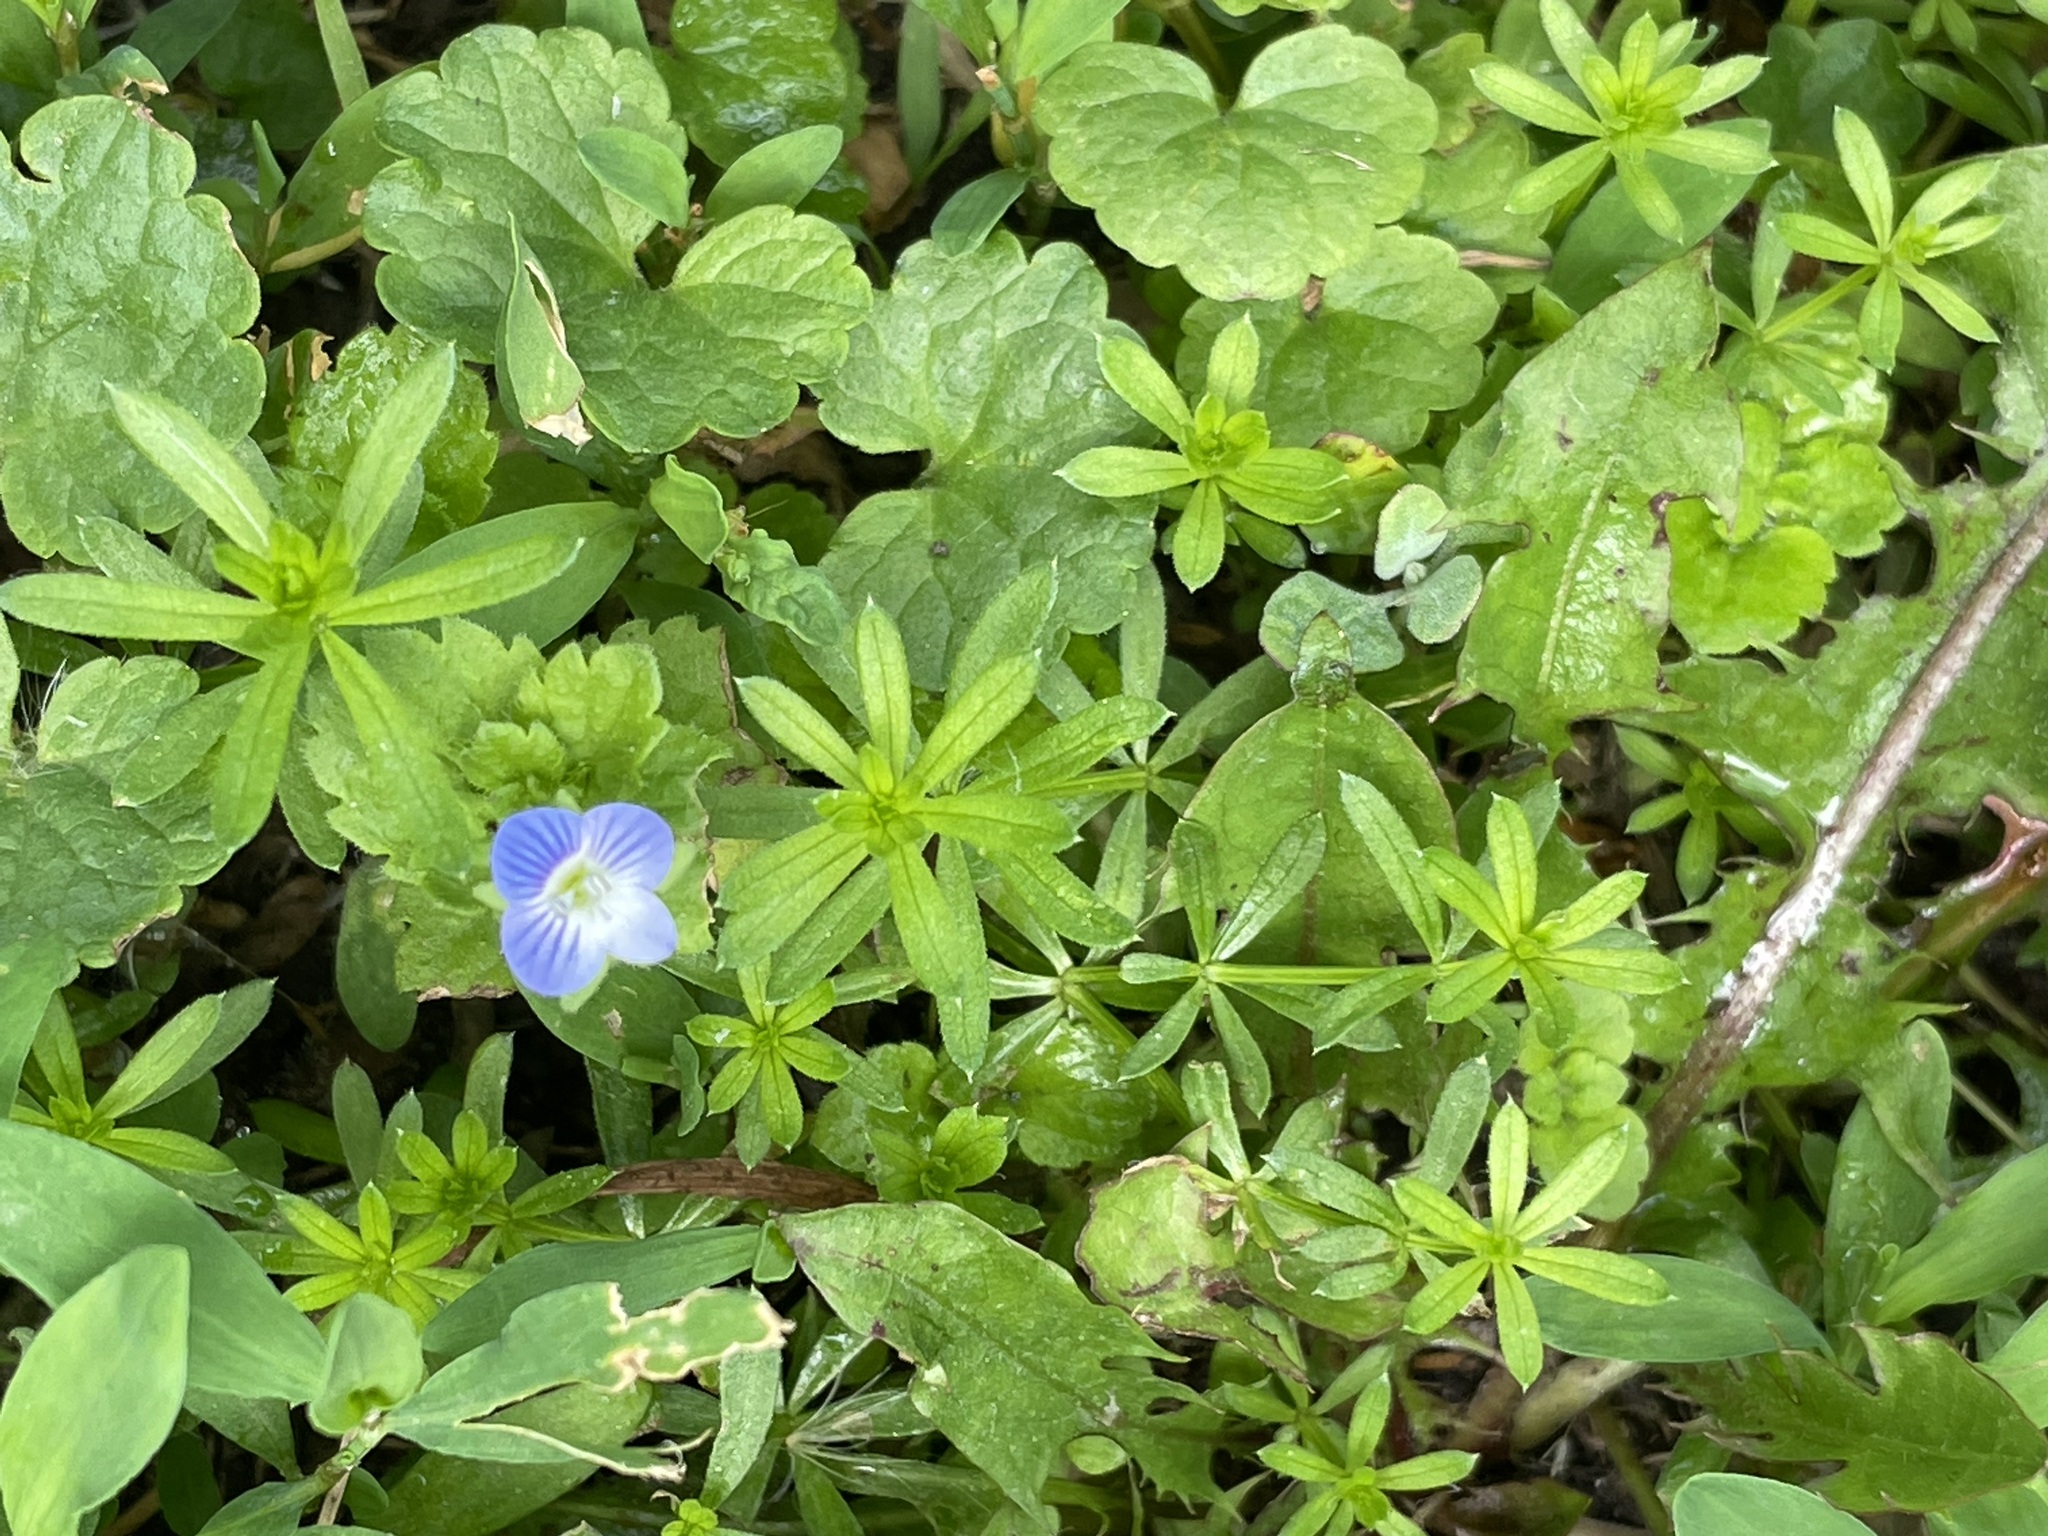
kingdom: Plantae
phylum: Tracheophyta
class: Magnoliopsida
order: Lamiales
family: Plantaginaceae
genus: Veronica
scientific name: Veronica persica
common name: Common field-speedwell
